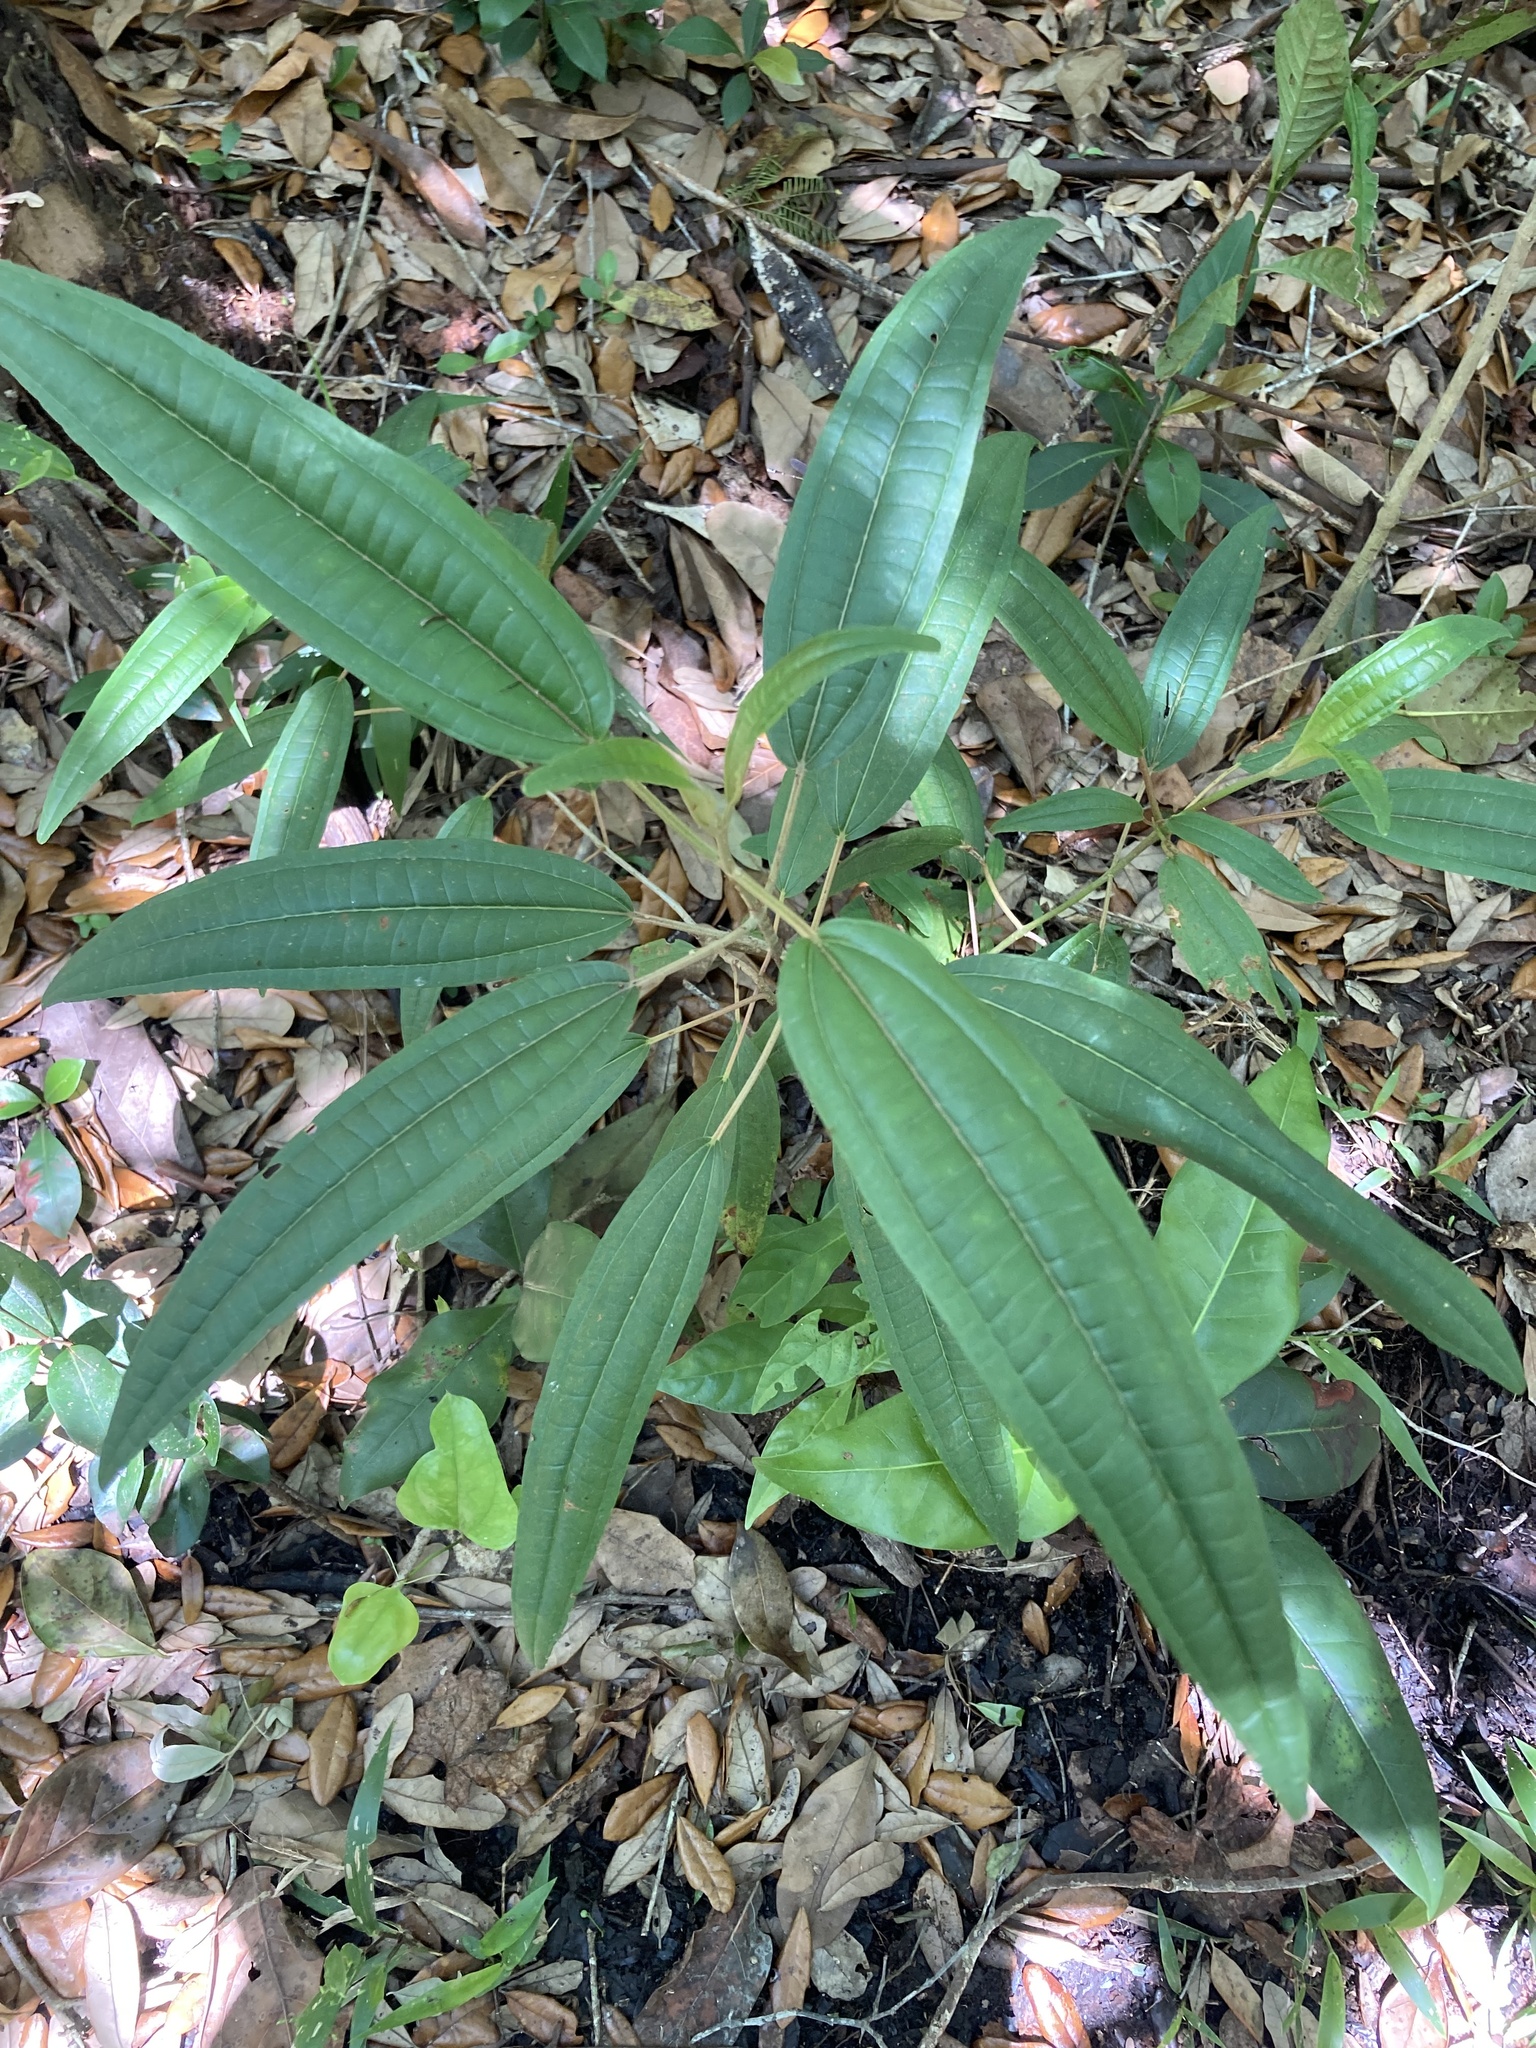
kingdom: Plantae
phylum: Tracheophyta
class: Magnoliopsida
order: Myrtales
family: Melastomataceae
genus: Miconia
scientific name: Miconia bicolor
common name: Johnnyberry
